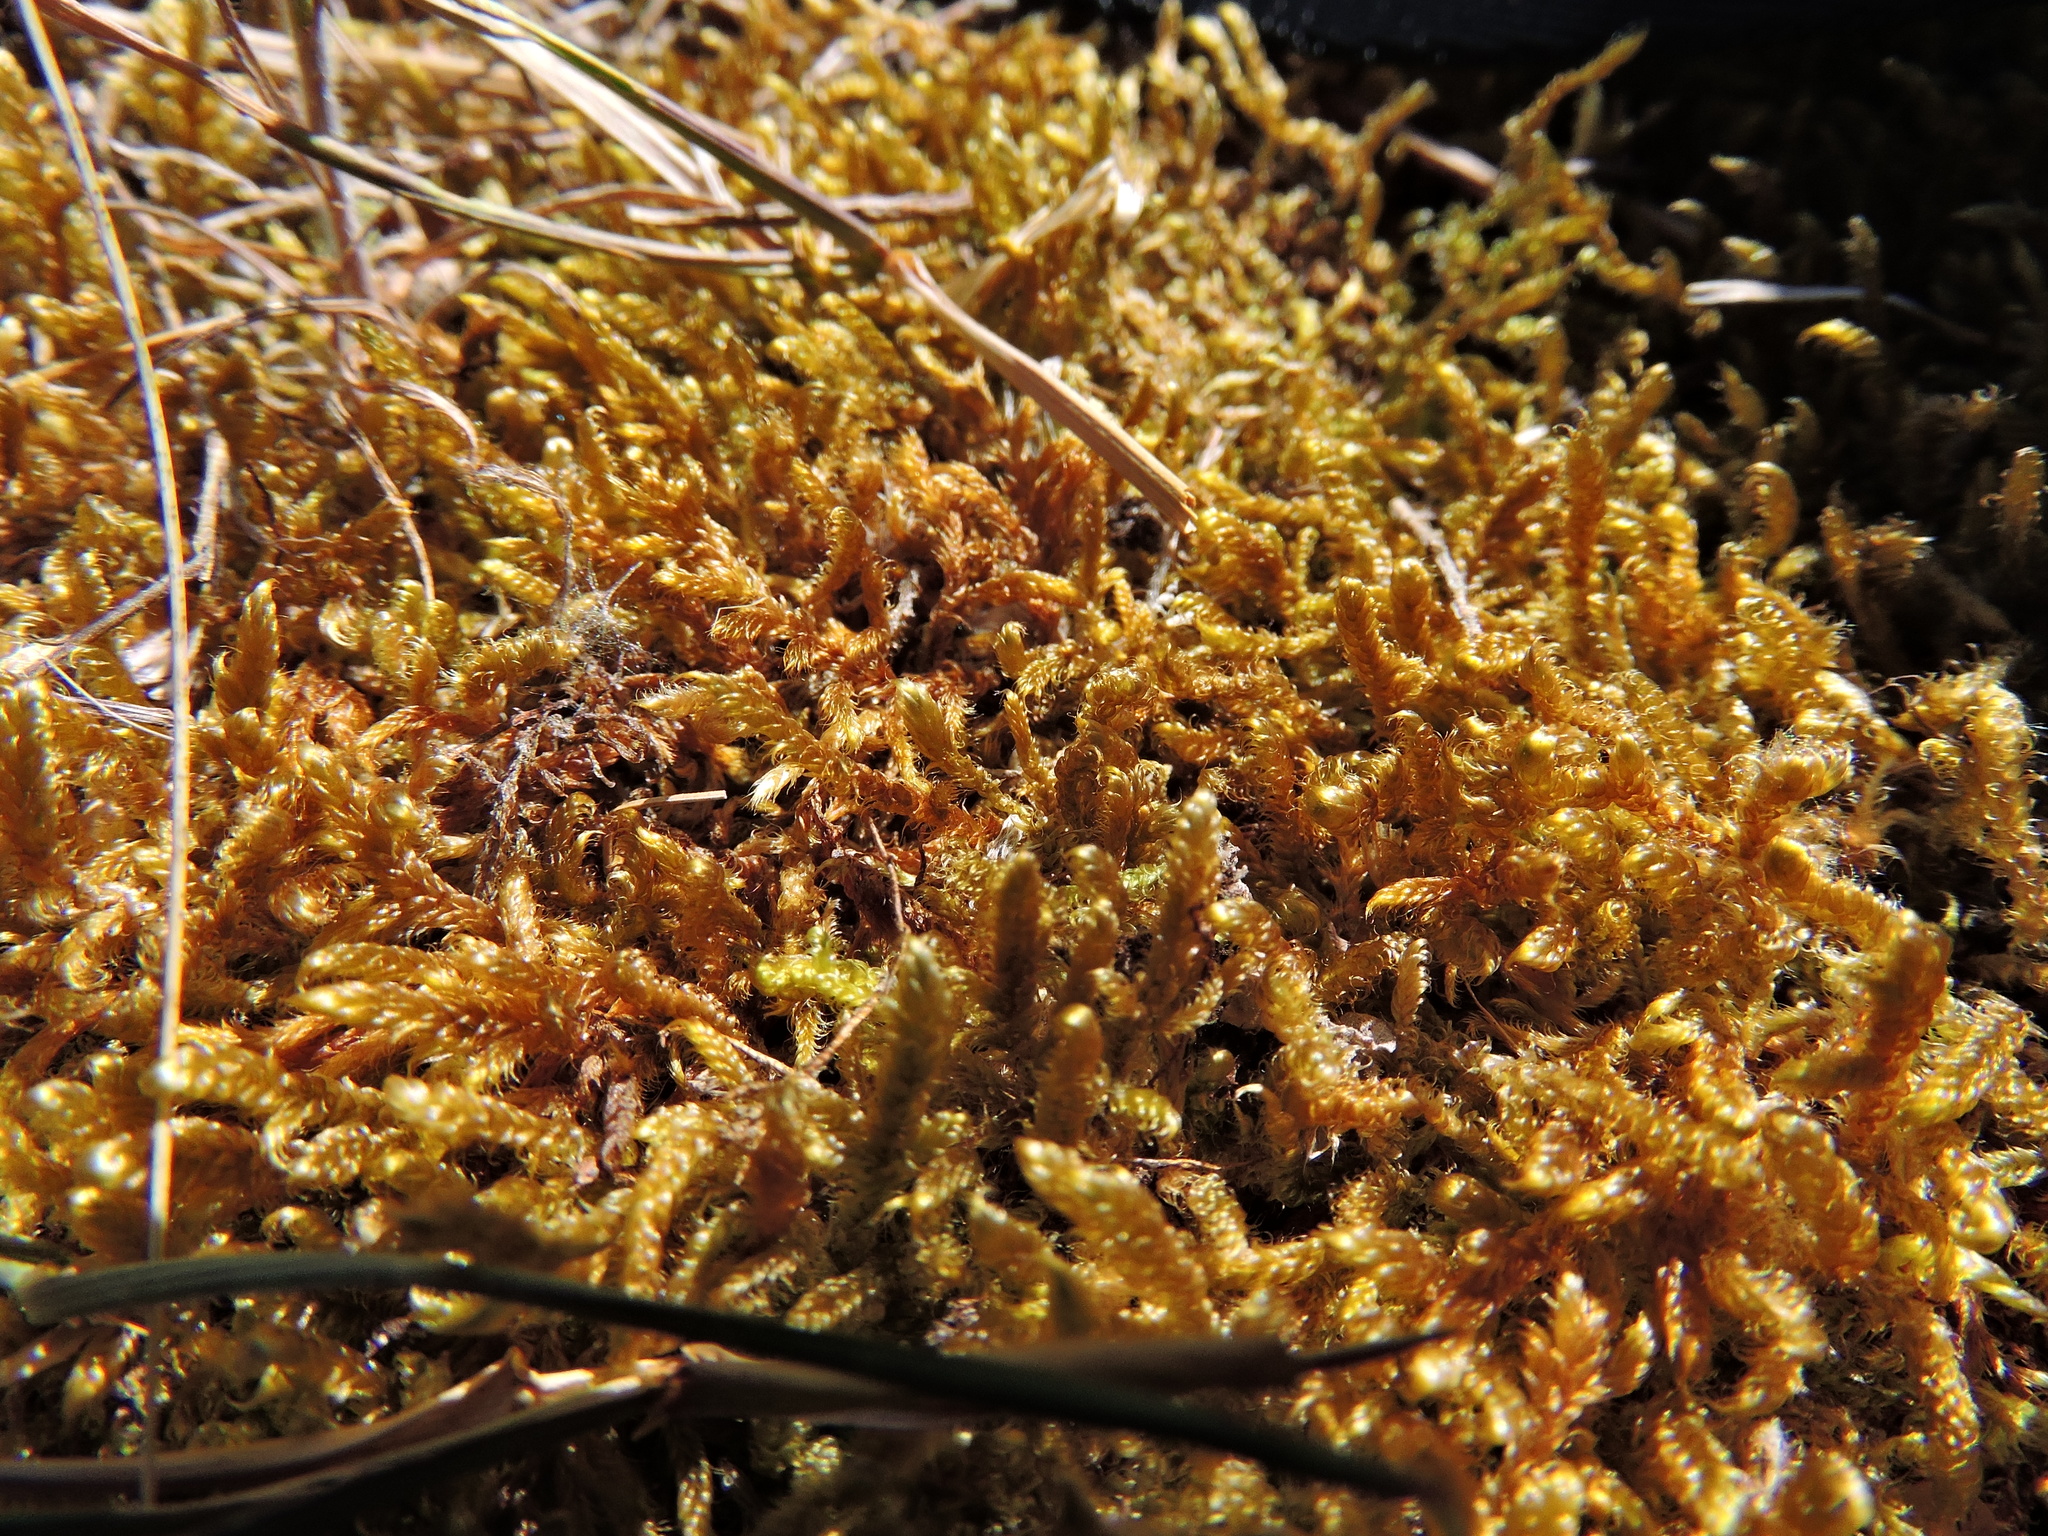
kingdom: Plantae
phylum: Bryophyta
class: Bryopsida
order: Hypnales
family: Hypnaceae
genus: Hypnum
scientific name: Hypnum cupressiforme
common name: Cypress-leaved plait-moss
